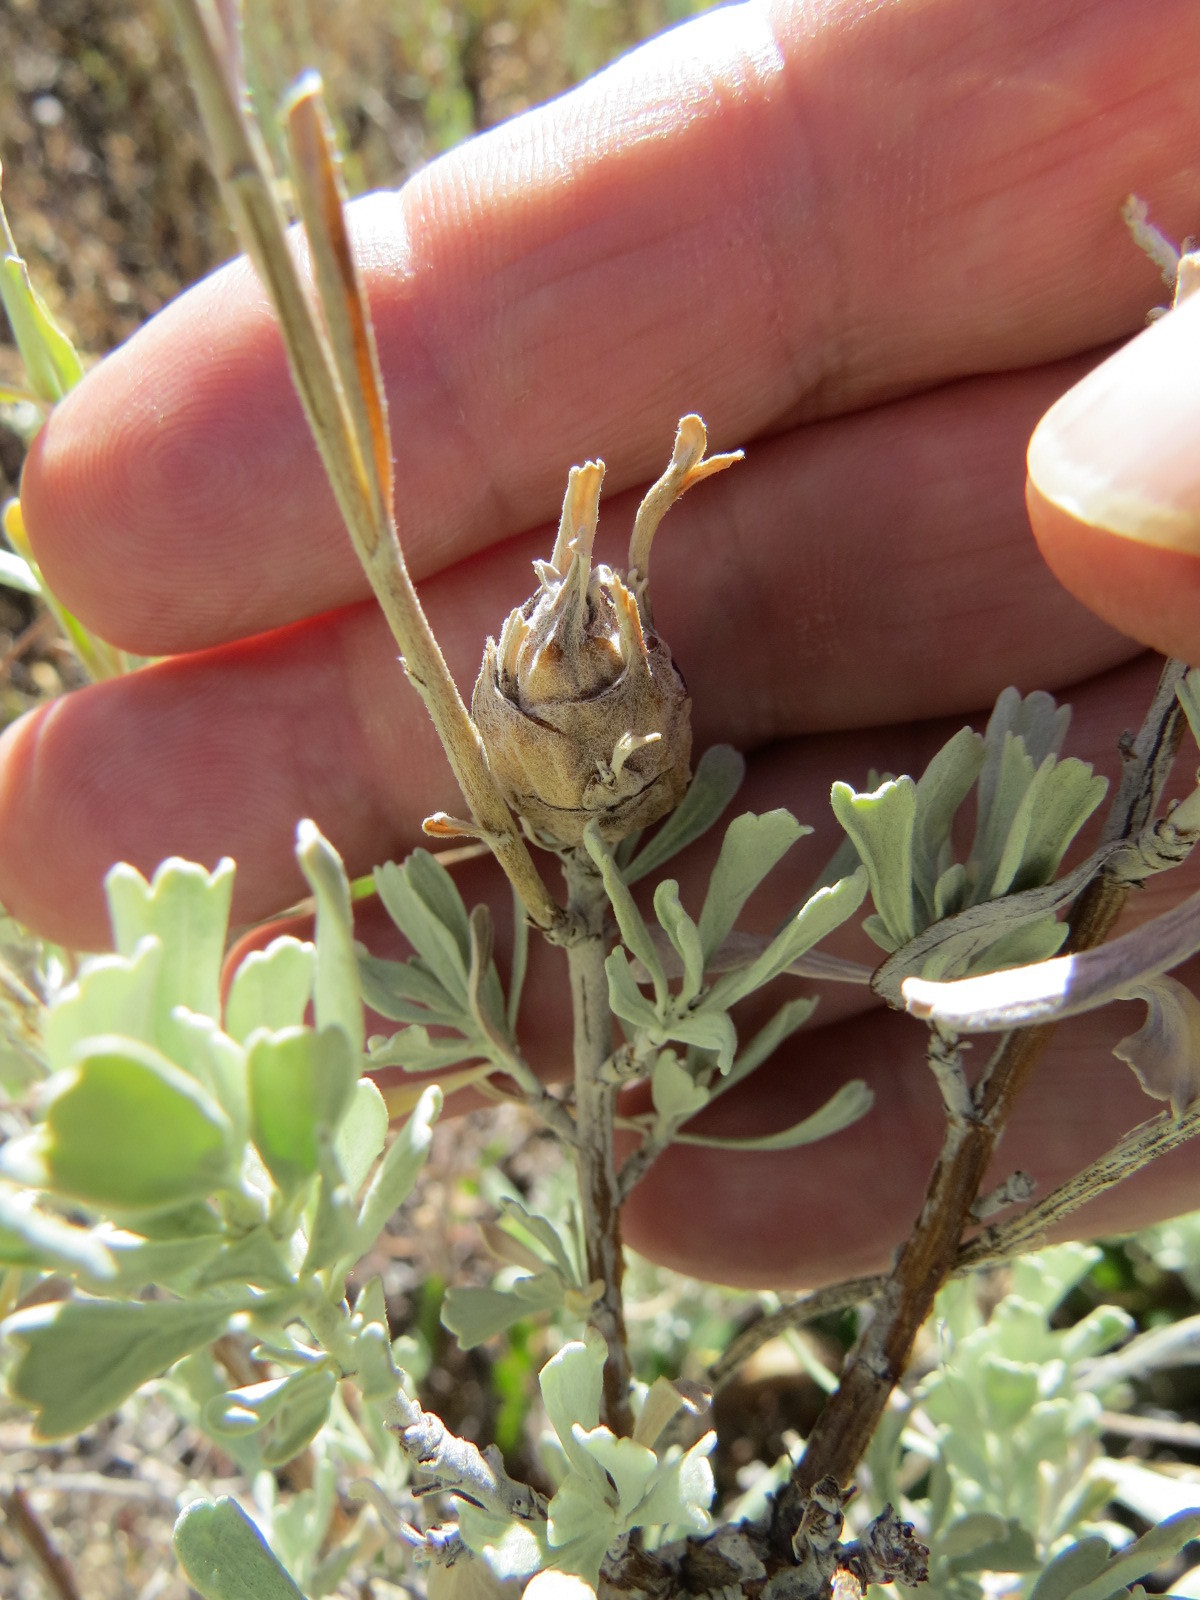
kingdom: Animalia
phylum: Arthropoda
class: Insecta
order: Diptera
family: Tephritidae
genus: Eutreta
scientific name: Eutreta diana
